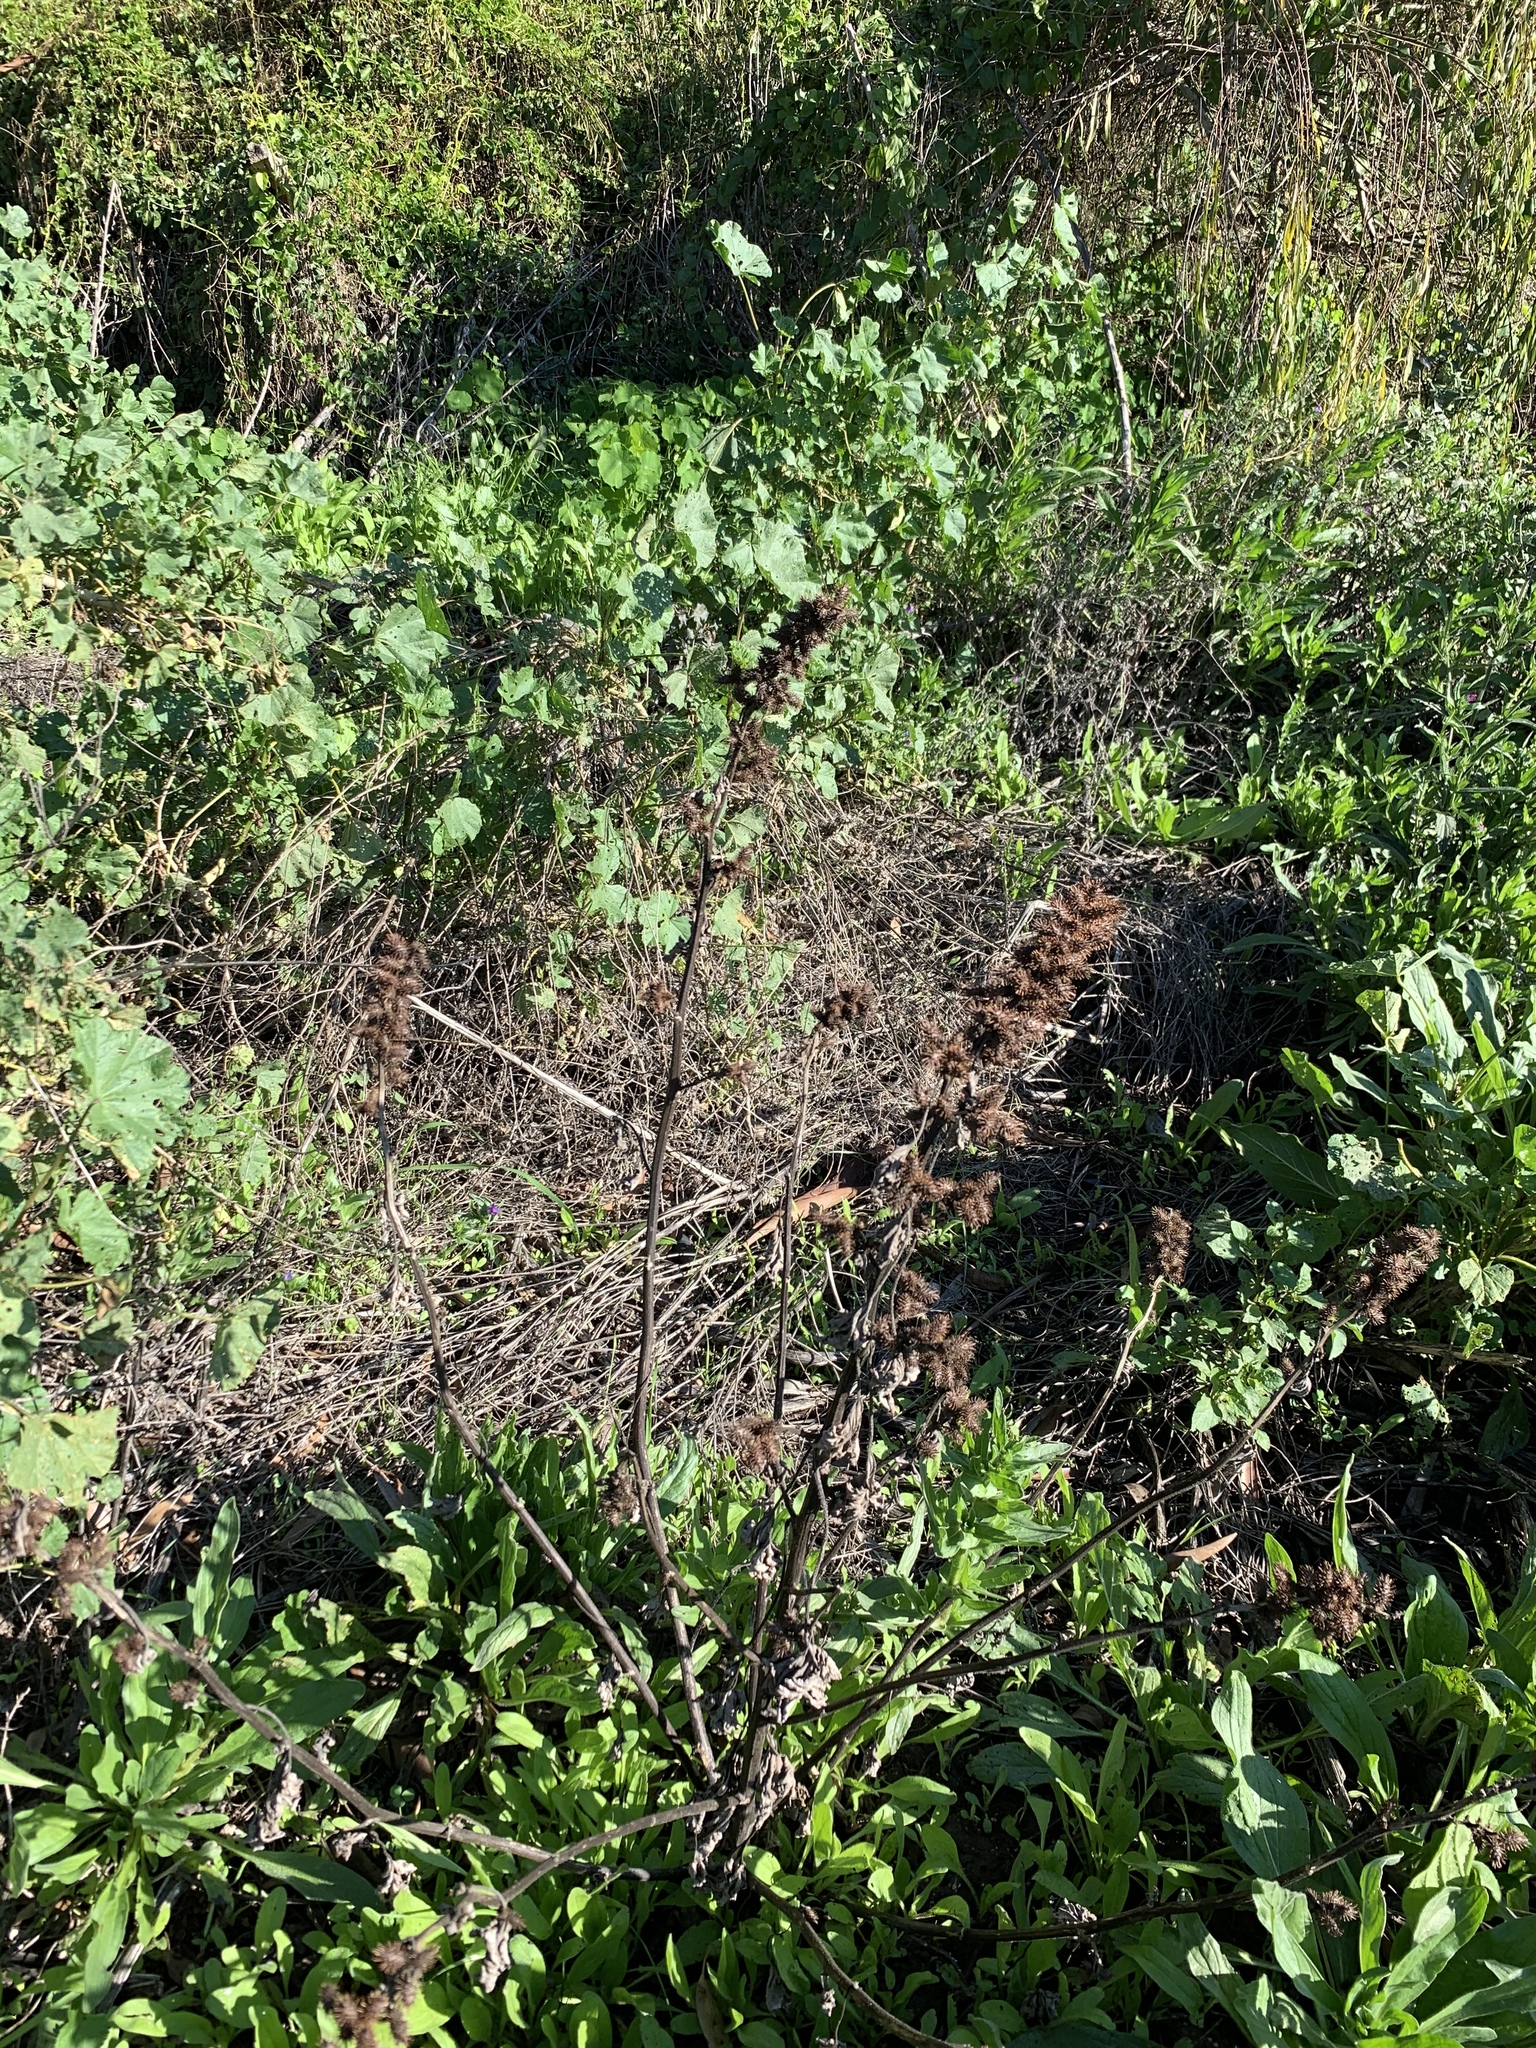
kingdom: Plantae
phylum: Tracheophyta
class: Magnoliopsida
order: Asterales
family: Asteraceae
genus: Xanthium
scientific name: Xanthium strumarium
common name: Rough cocklebur
